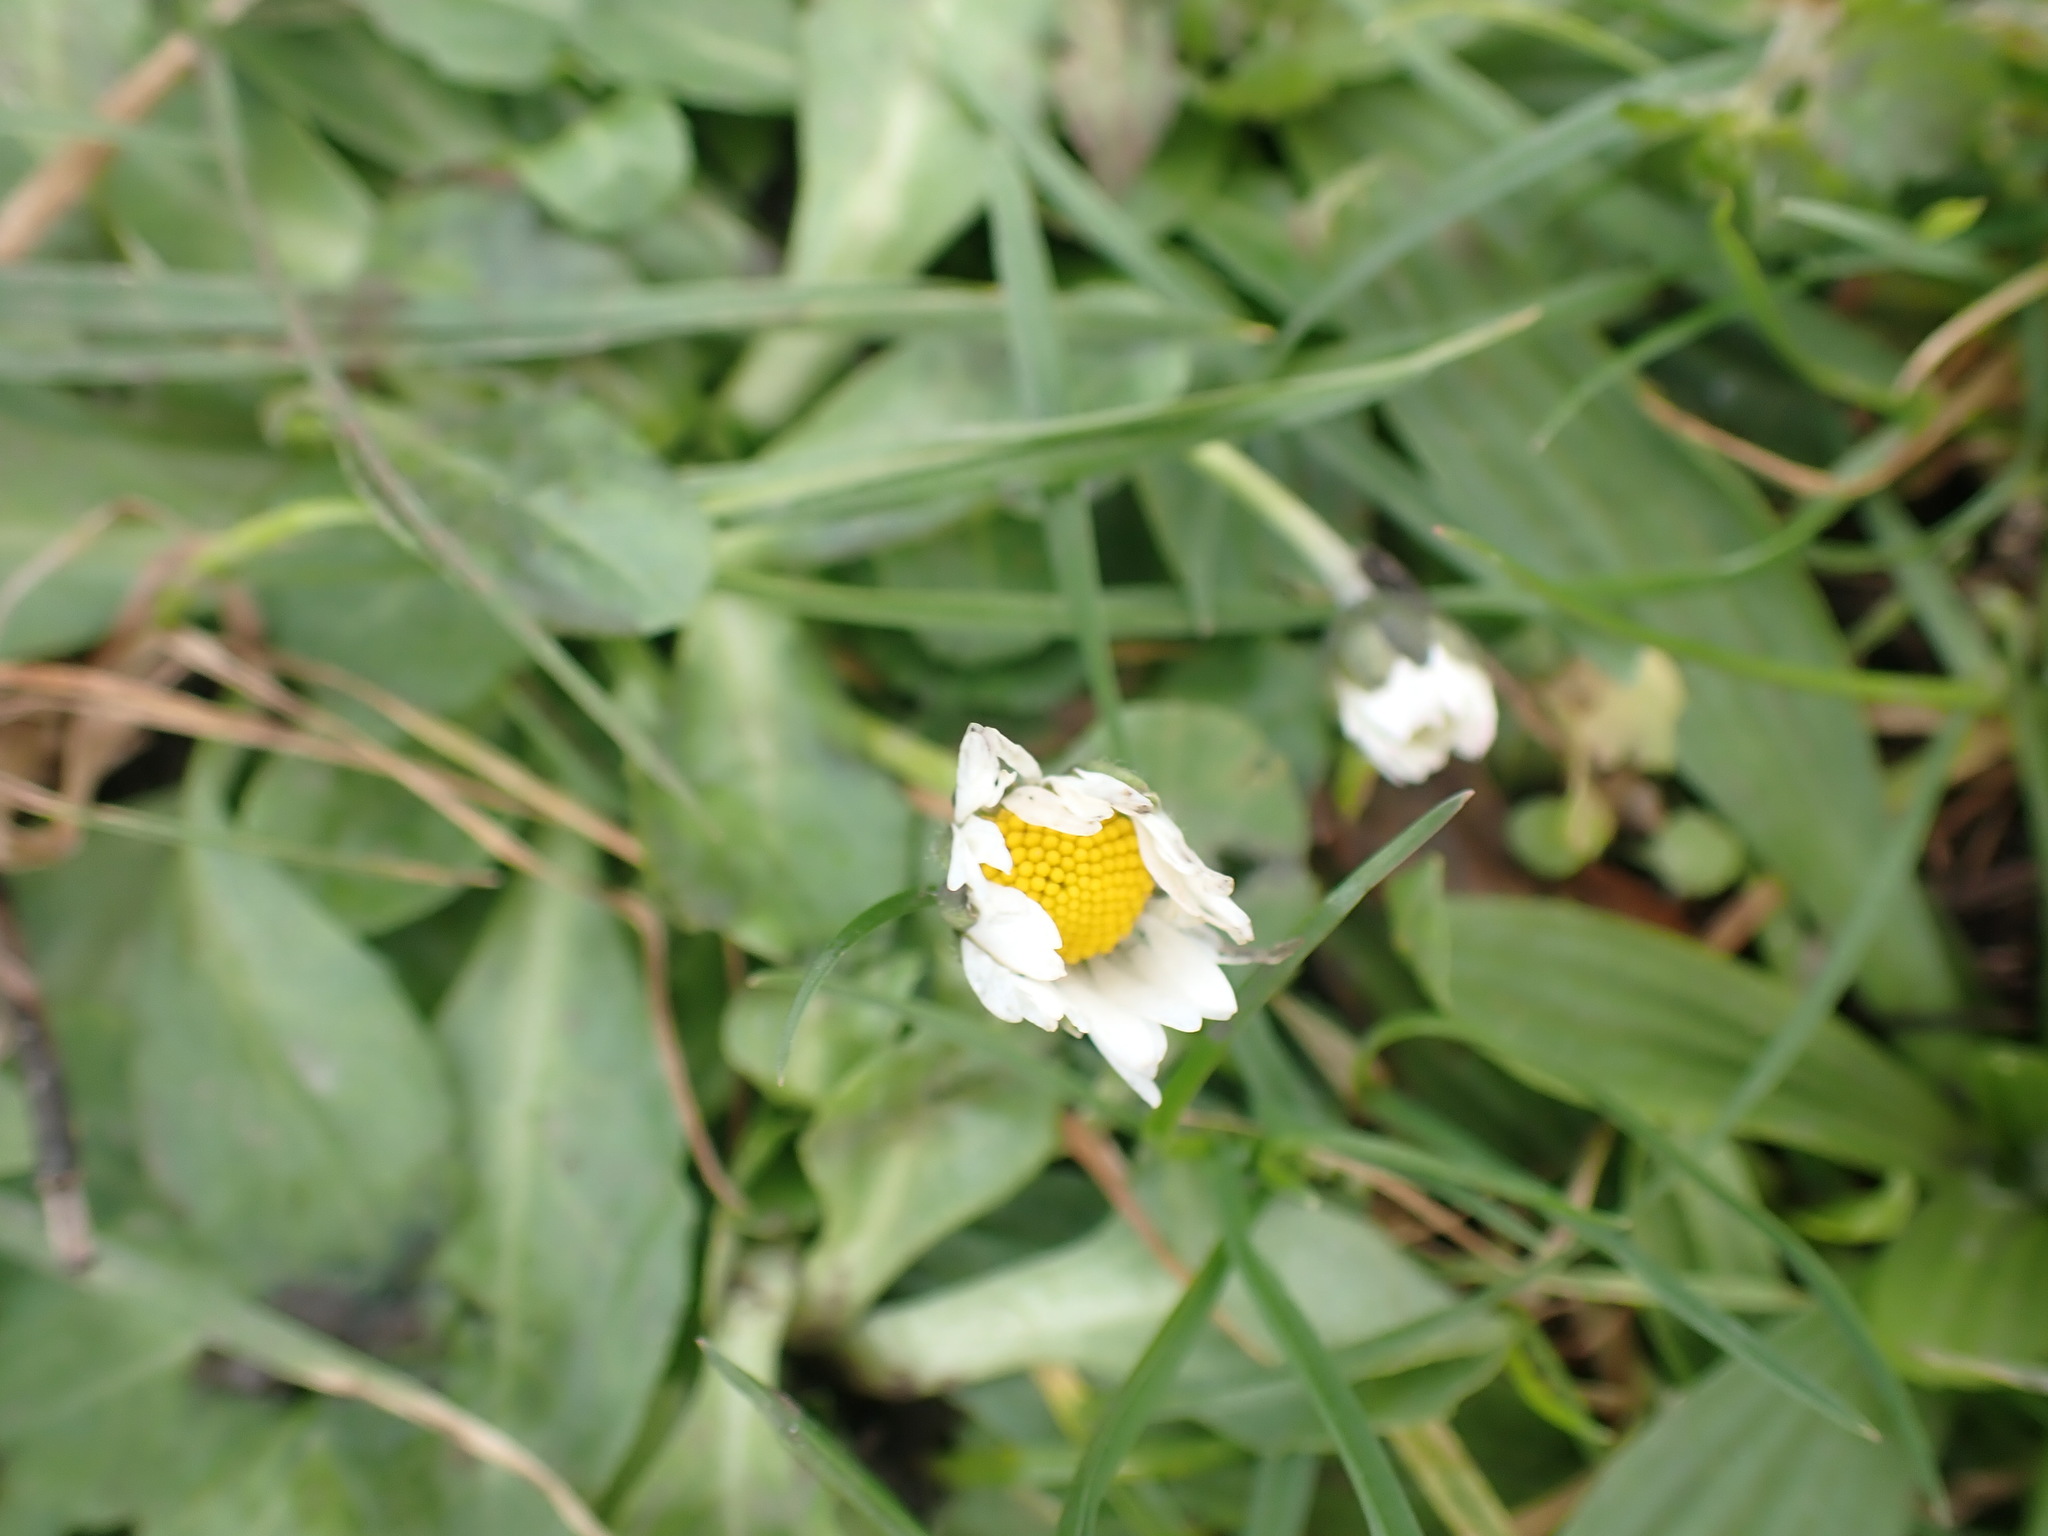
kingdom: Plantae
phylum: Tracheophyta
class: Magnoliopsida
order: Asterales
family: Asteraceae
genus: Bellis
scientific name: Bellis perennis
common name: Lawndaisy
